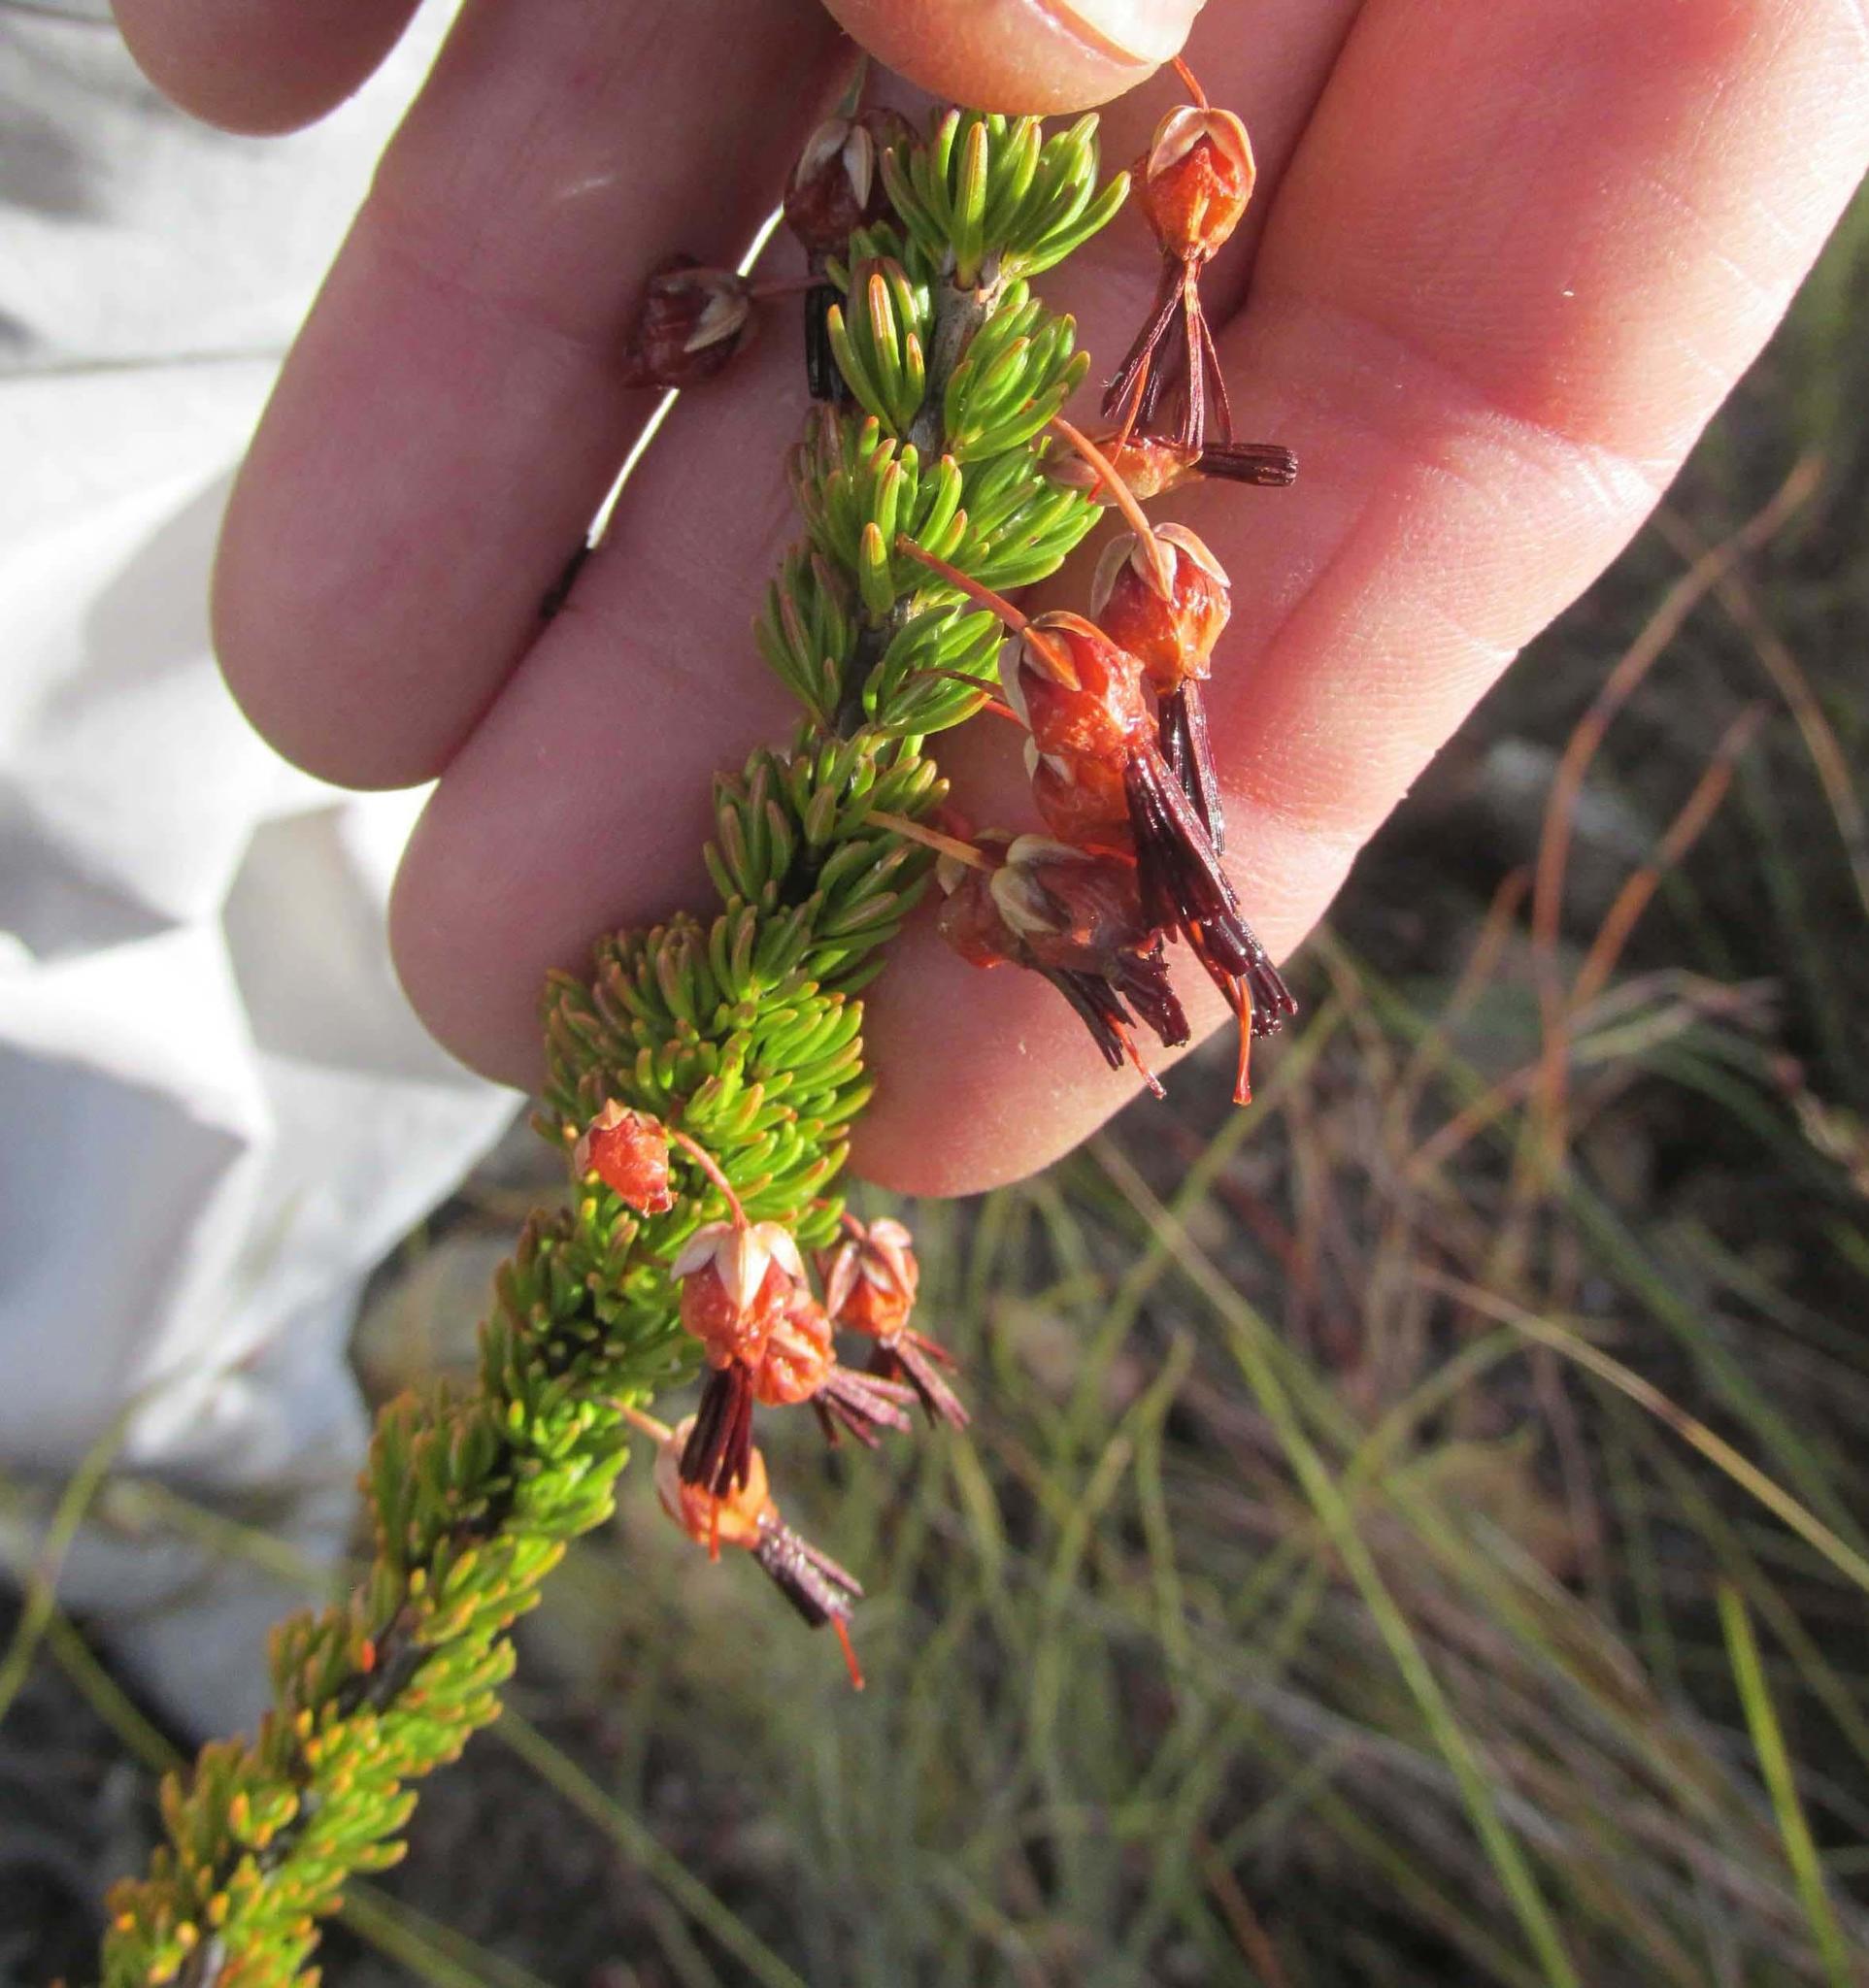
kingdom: Plantae
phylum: Tracheophyta
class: Magnoliopsida
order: Ericales
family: Ericaceae
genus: Erica
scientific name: Erica plukenetii
